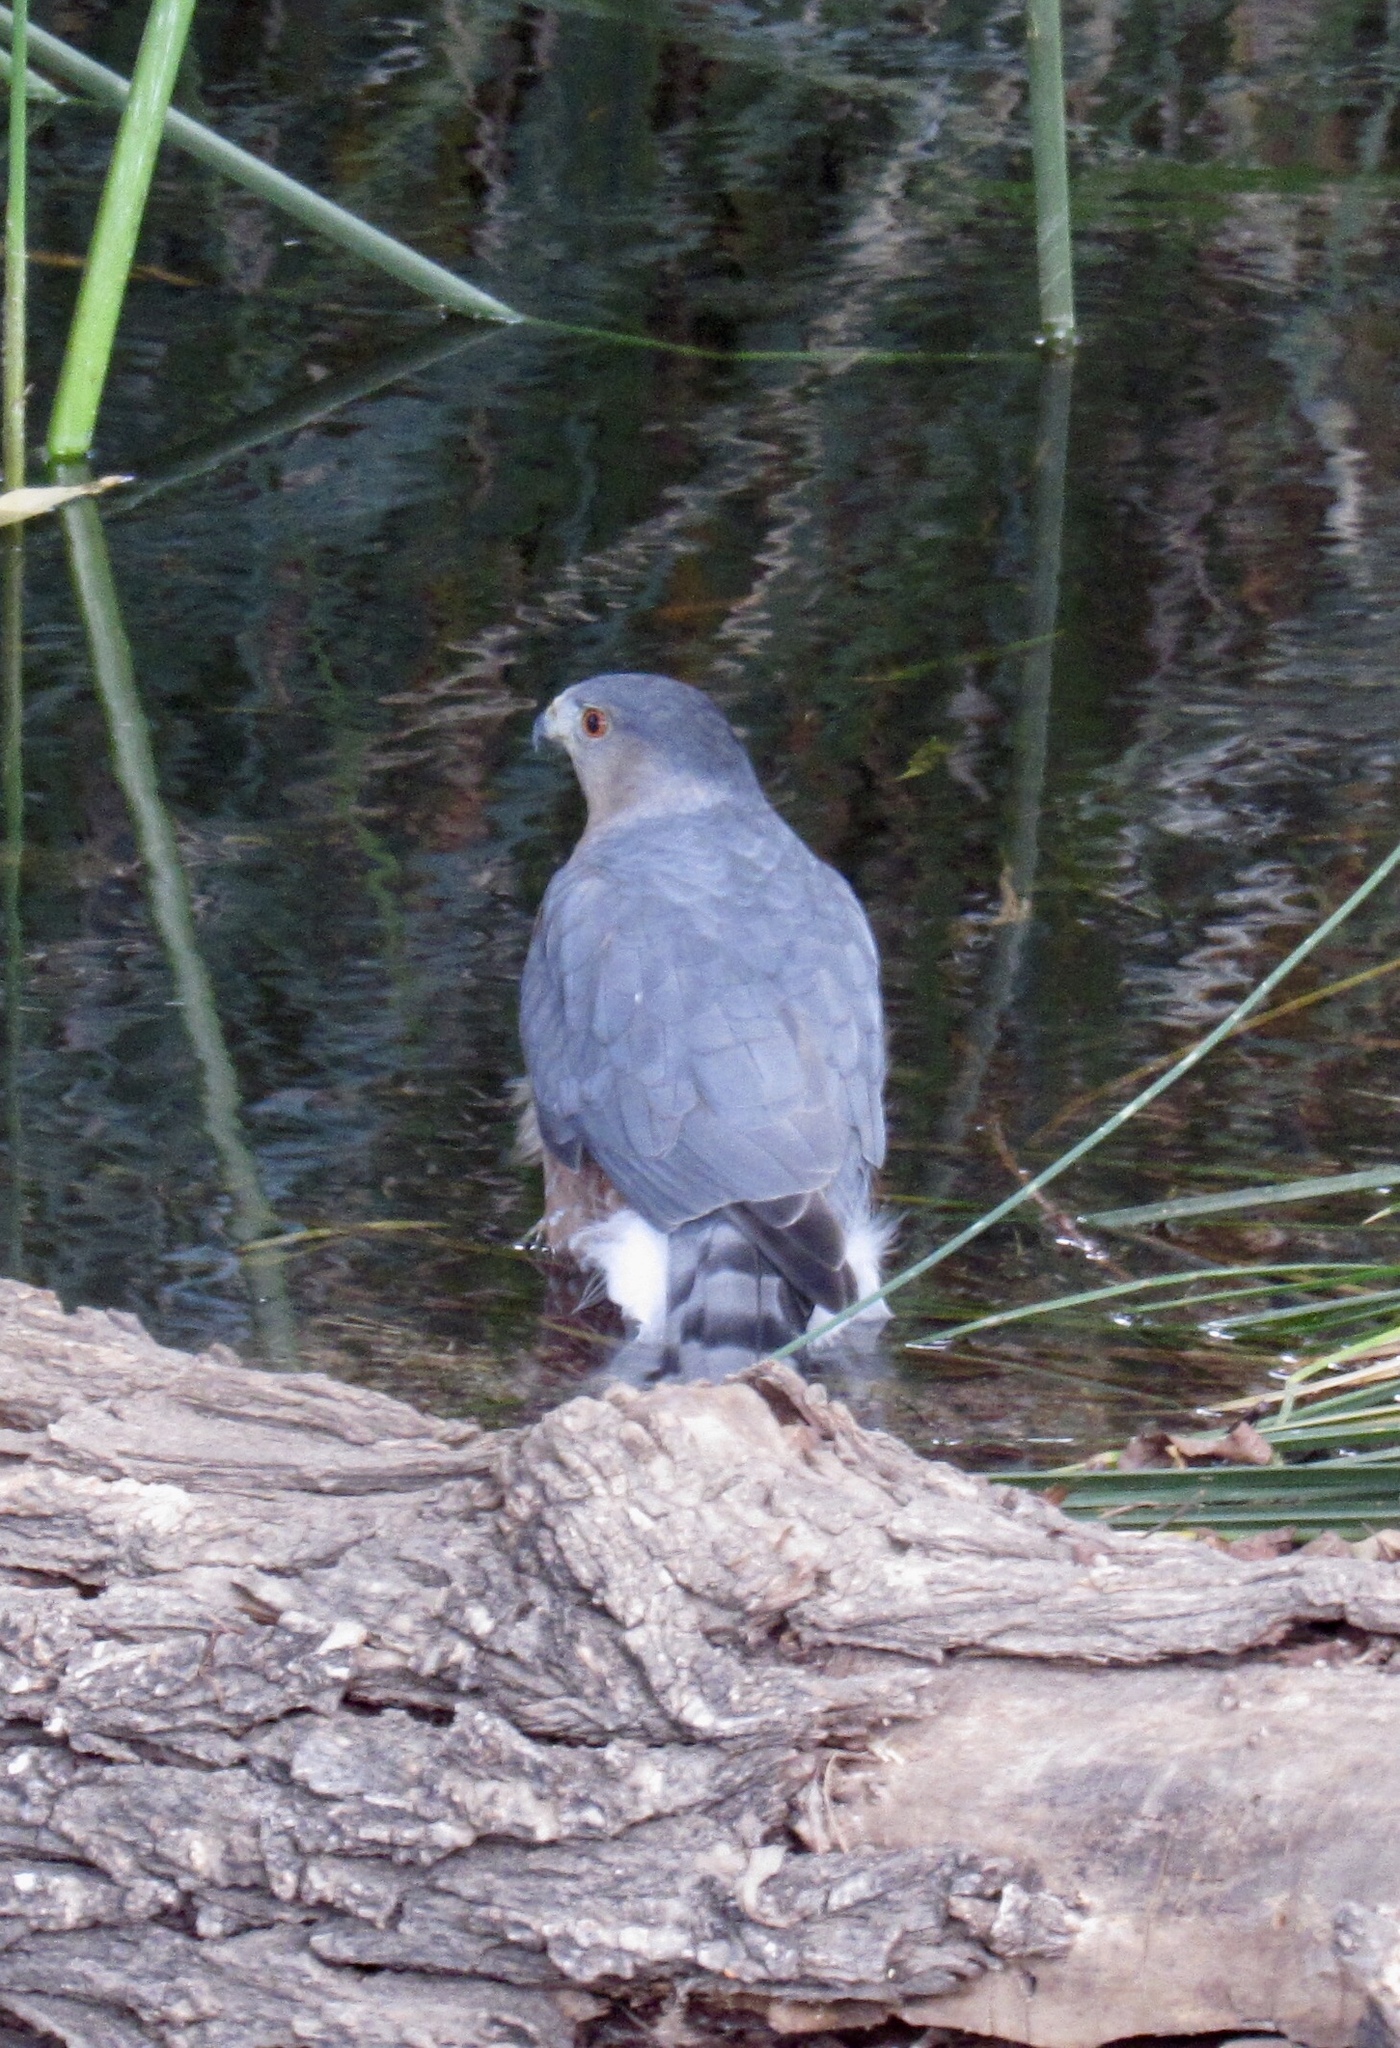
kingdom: Animalia
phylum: Chordata
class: Aves
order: Accipitriformes
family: Accipitridae
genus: Accipiter
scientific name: Accipiter cooperii
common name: Cooper's hawk
